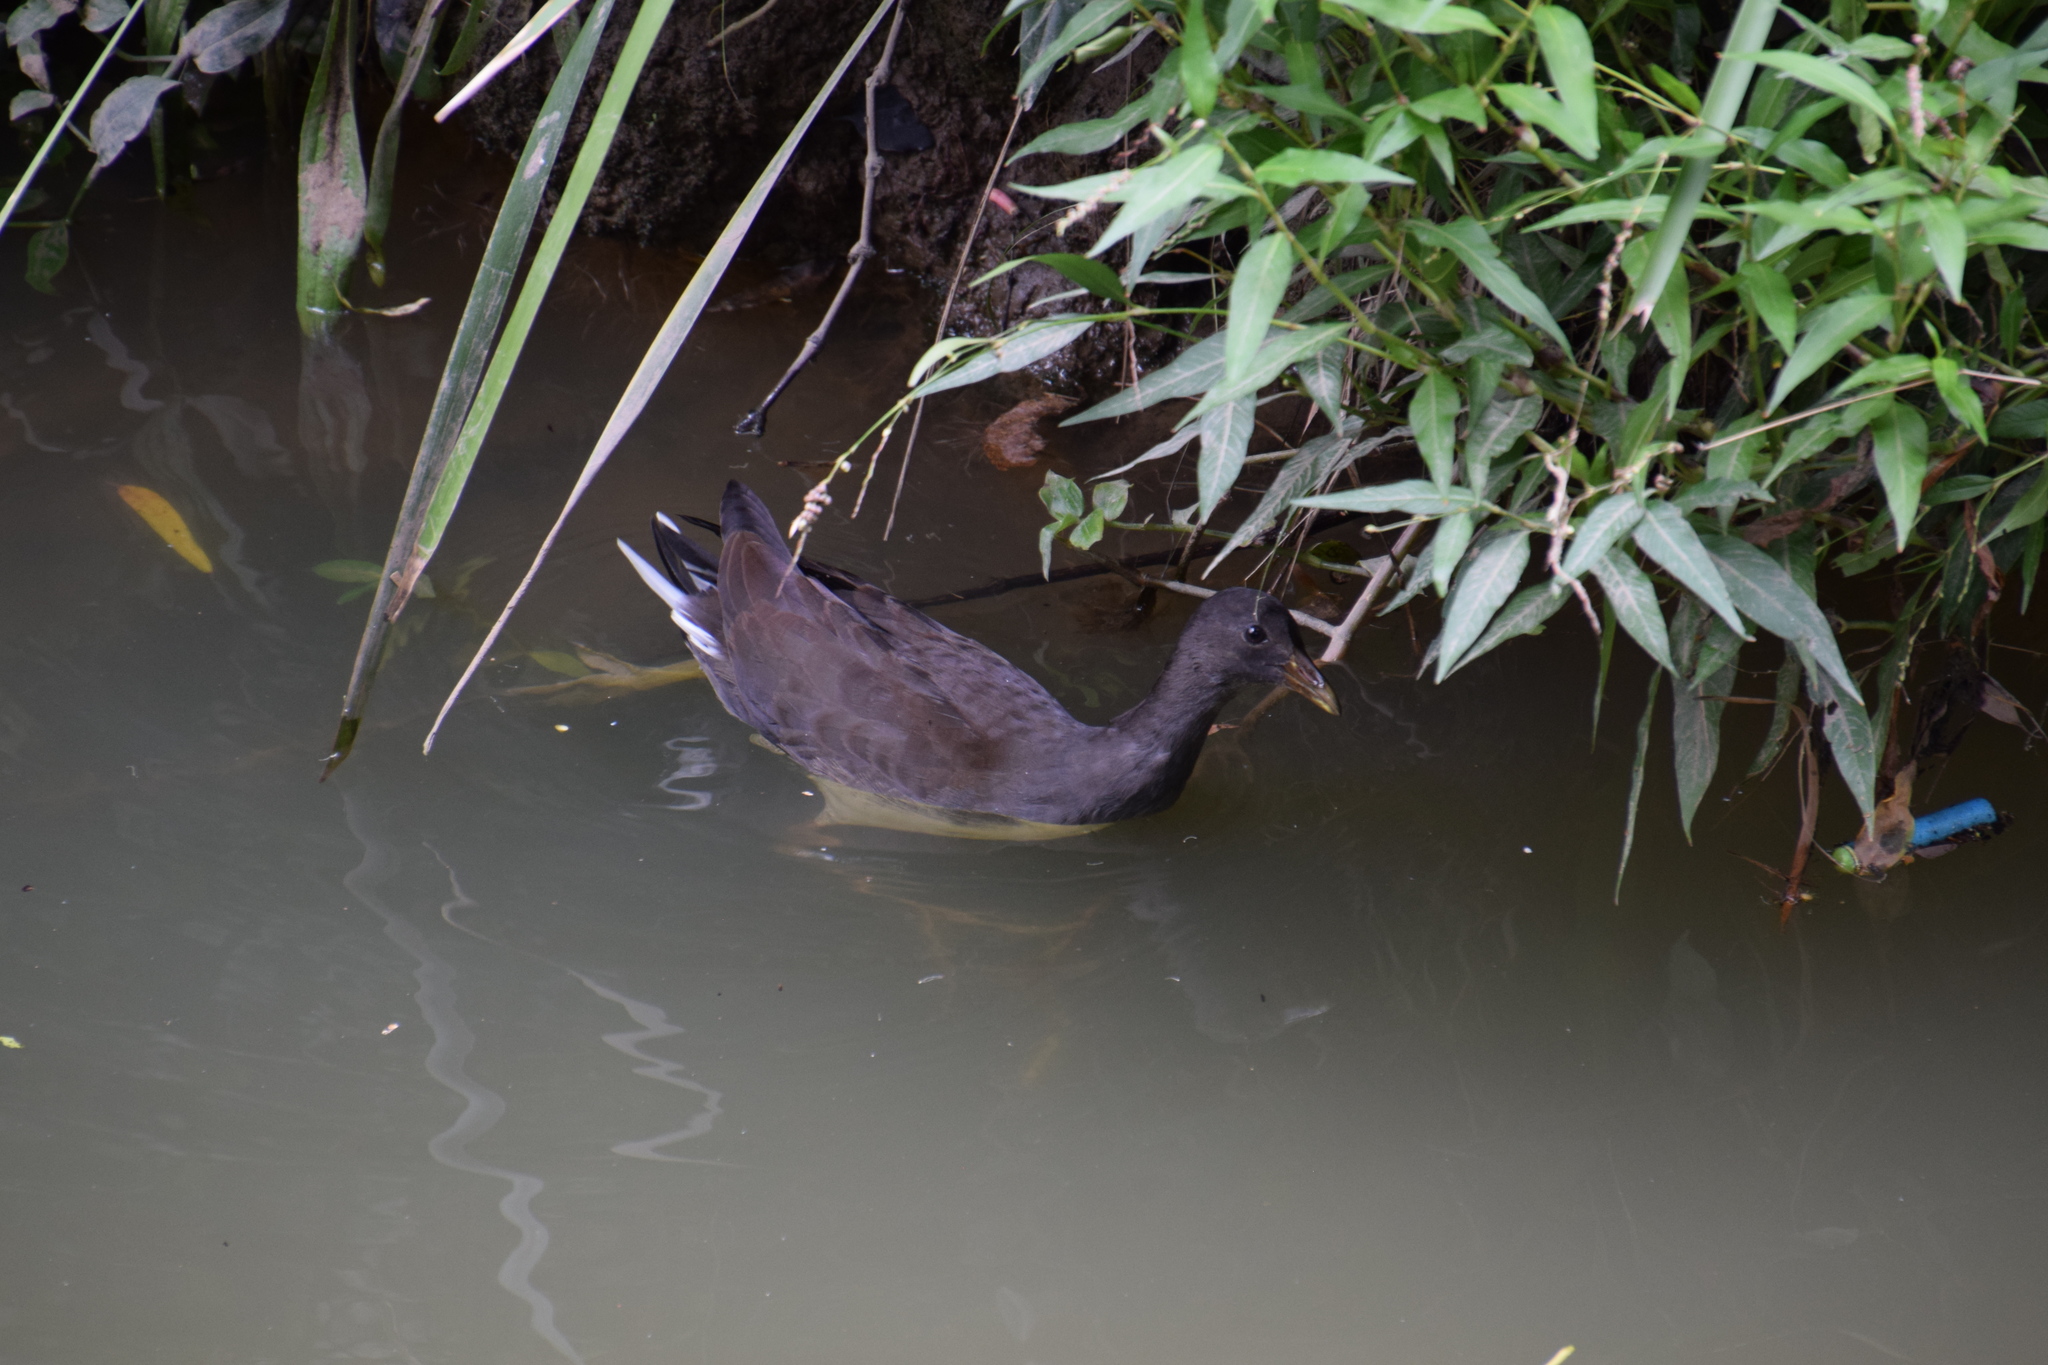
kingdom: Animalia
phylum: Chordata
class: Aves
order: Gruiformes
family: Rallidae
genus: Gallinula
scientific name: Gallinula tenebrosa
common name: Dusky moorhen
